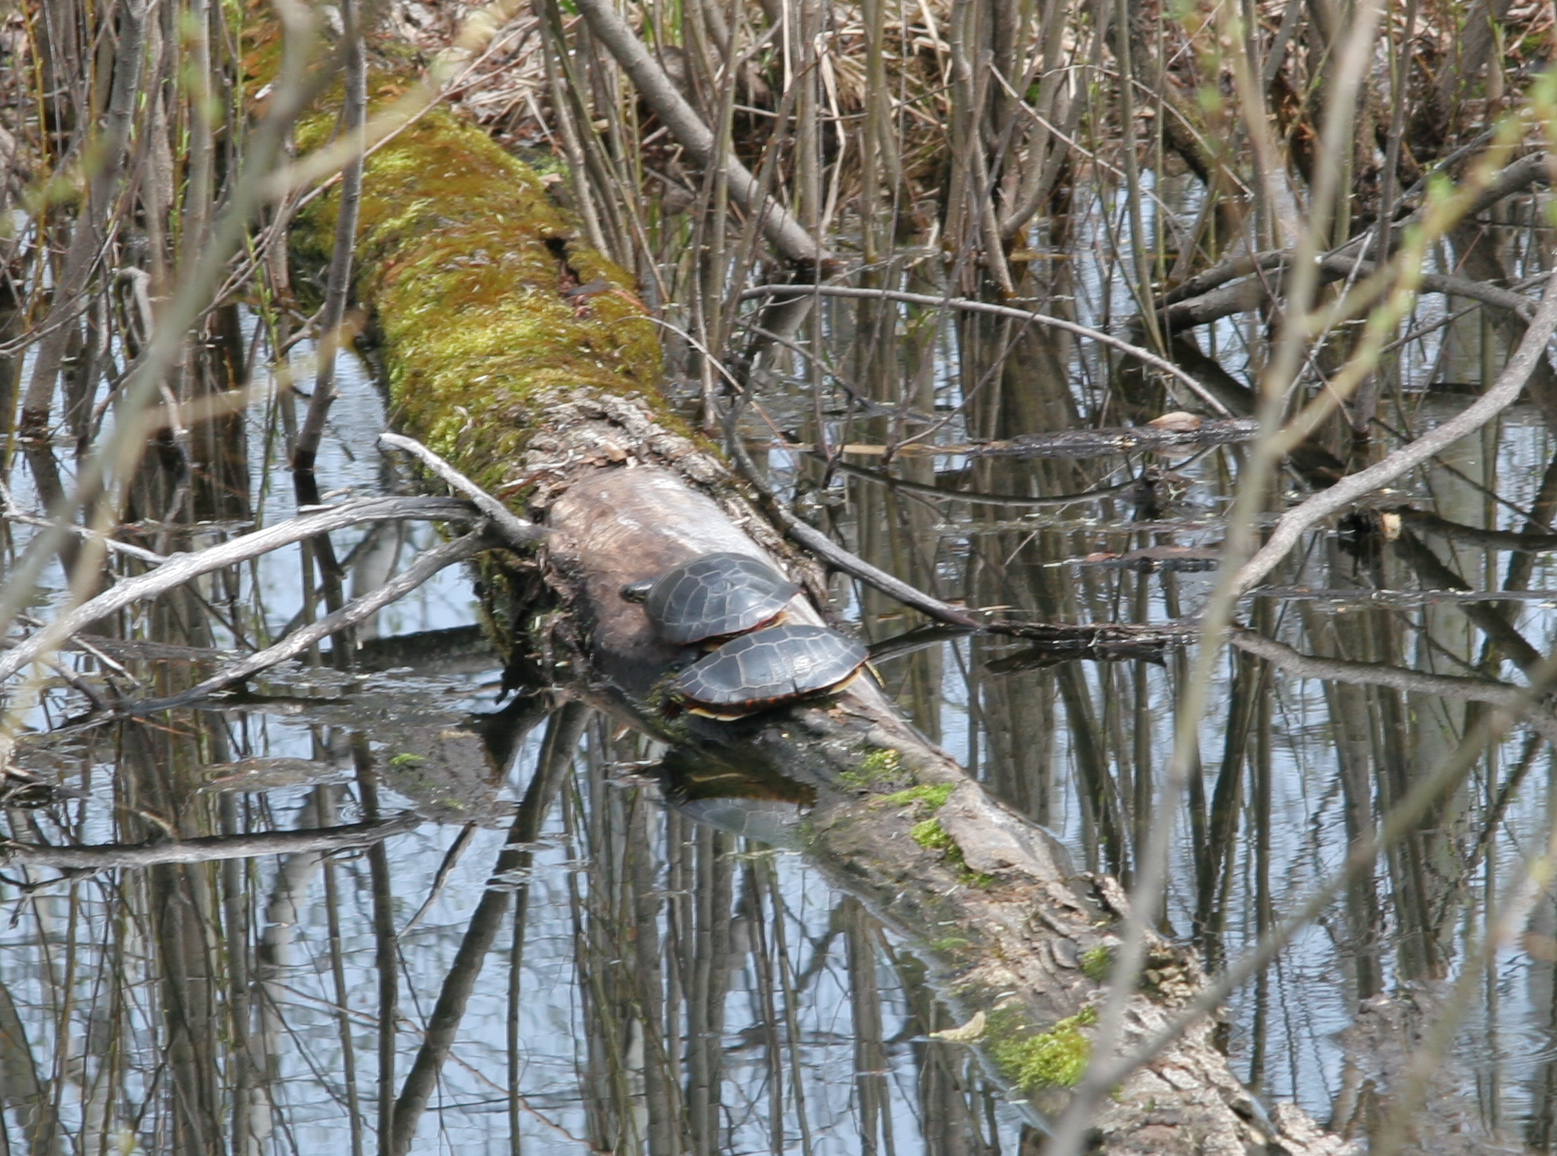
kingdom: Animalia
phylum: Chordata
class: Testudines
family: Emydidae
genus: Chrysemys
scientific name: Chrysemys picta
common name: Painted turtle
